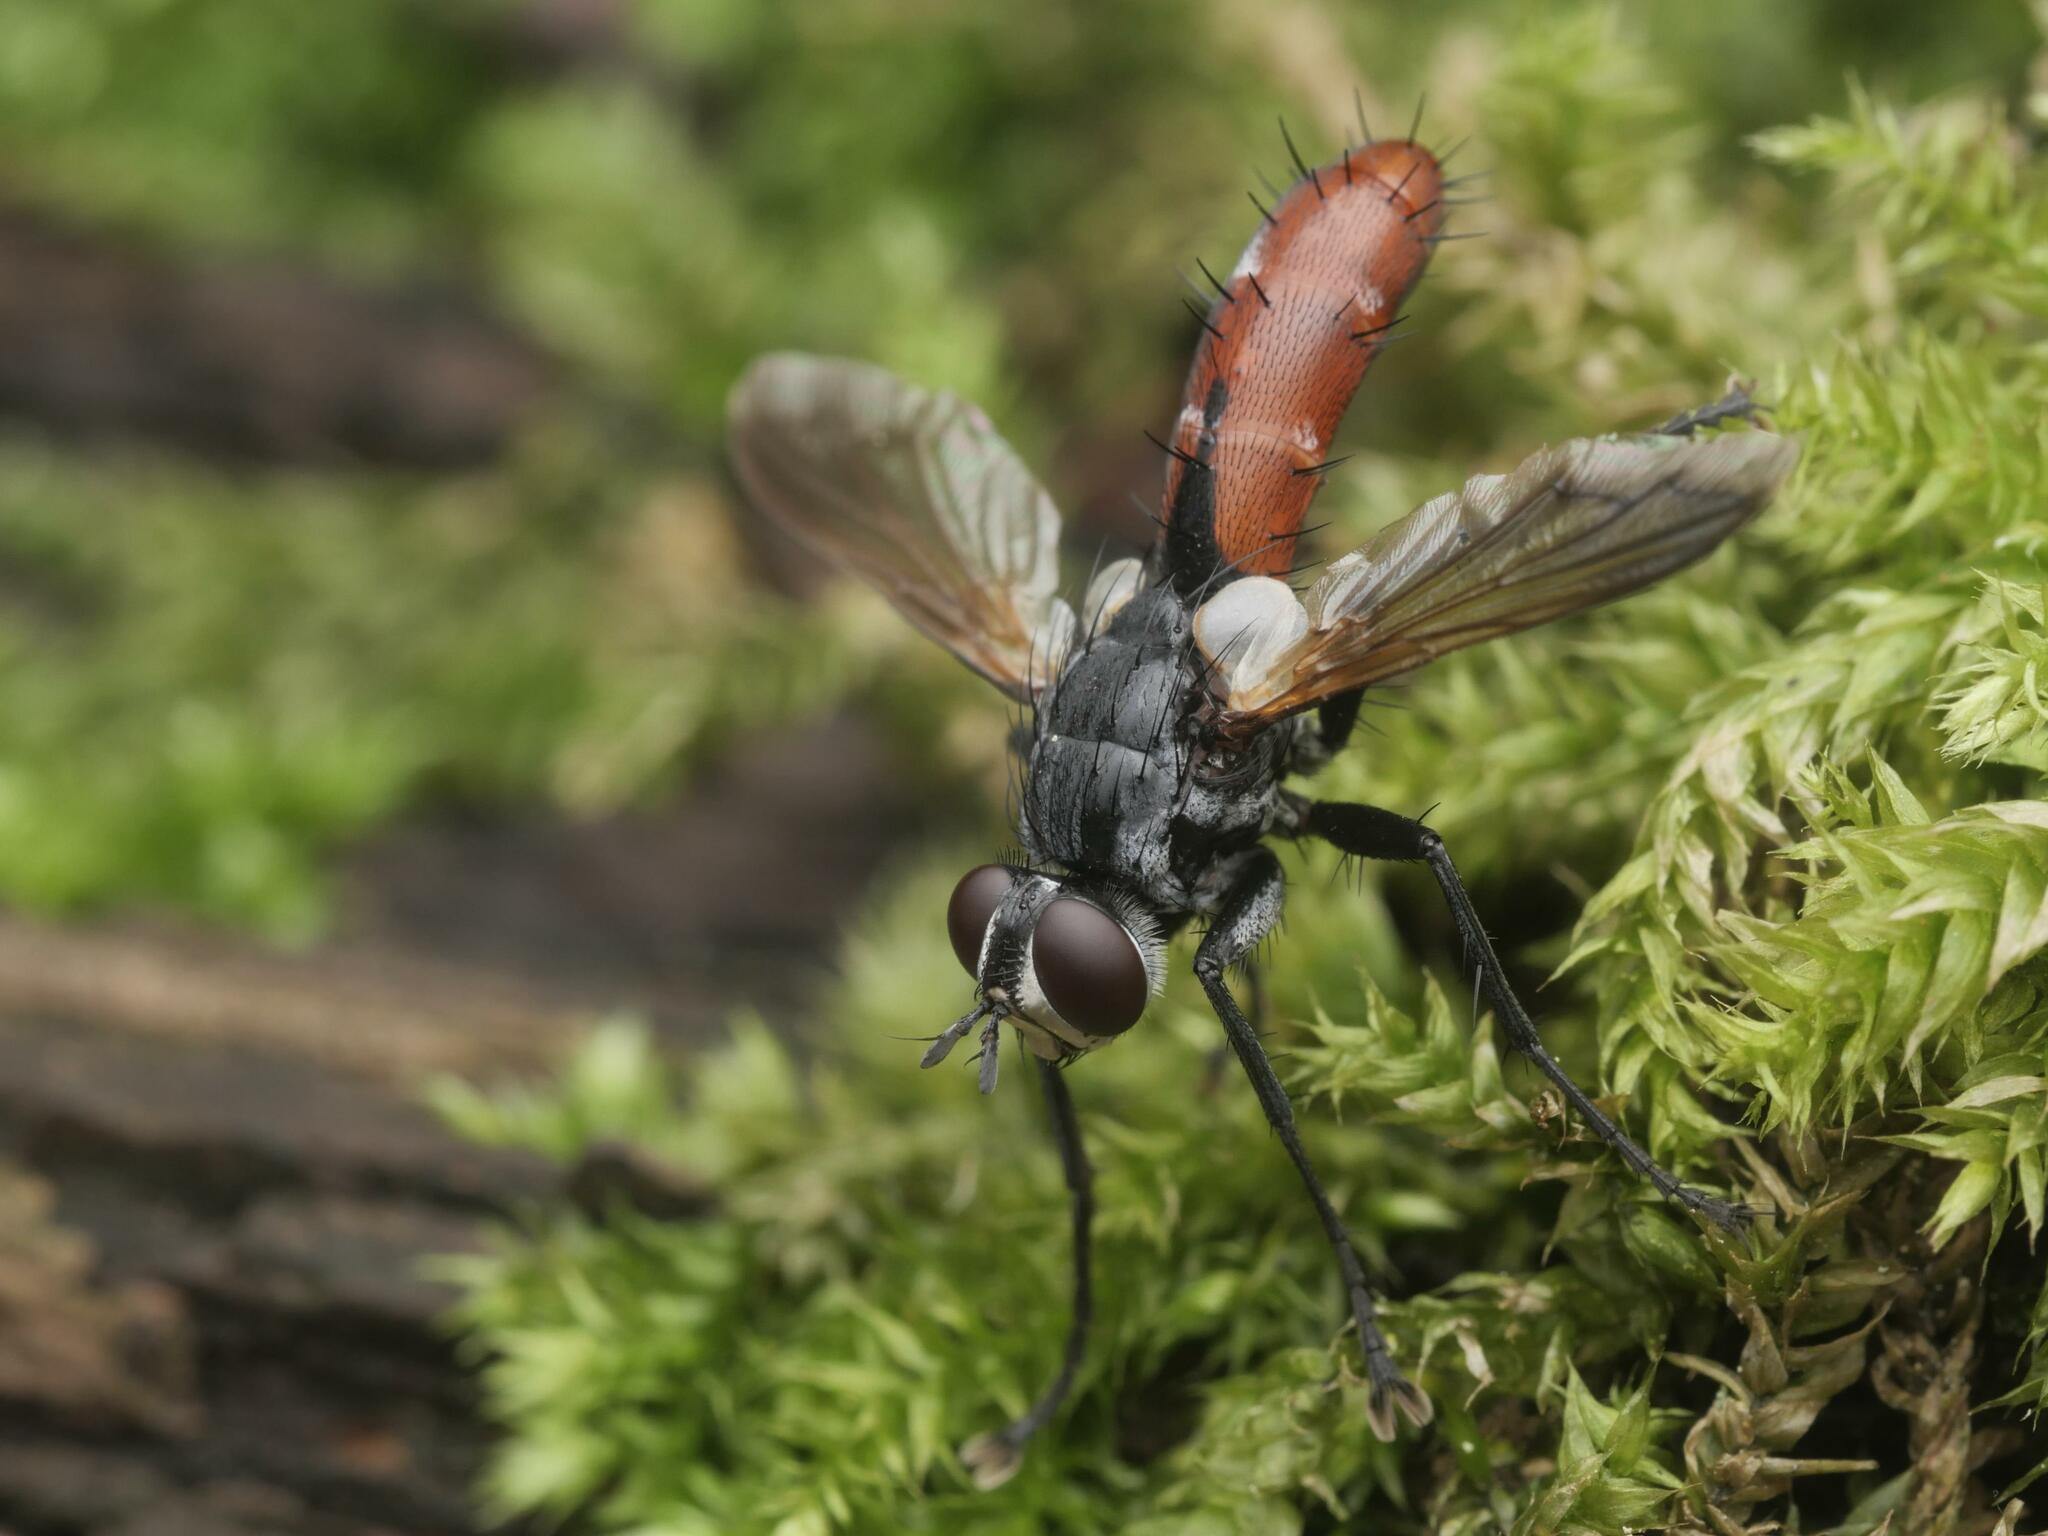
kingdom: Animalia
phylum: Arthropoda
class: Insecta
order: Diptera
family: Tachinidae
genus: Cylindromyia
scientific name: Cylindromyia bicolor
